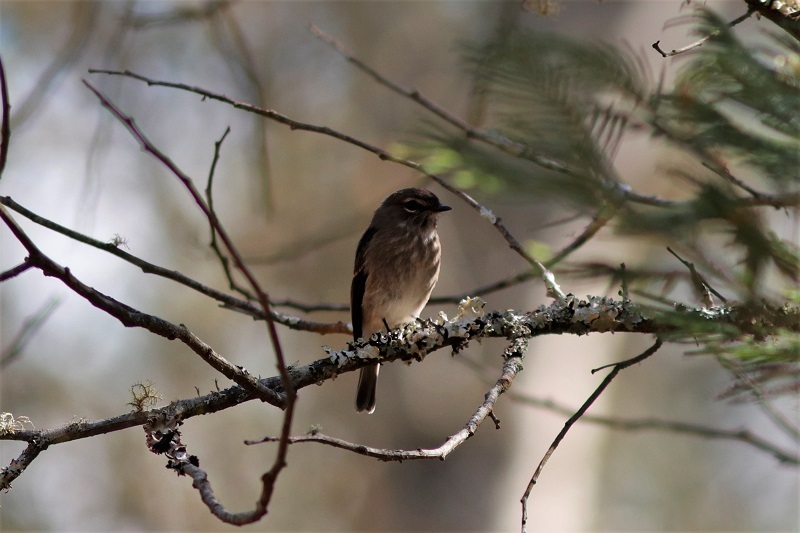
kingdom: Animalia
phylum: Chordata
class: Aves
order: Passeriformes
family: Muscicapidae
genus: Muscicapa
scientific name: Muscicapa adusta
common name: African dusky flycatcher
